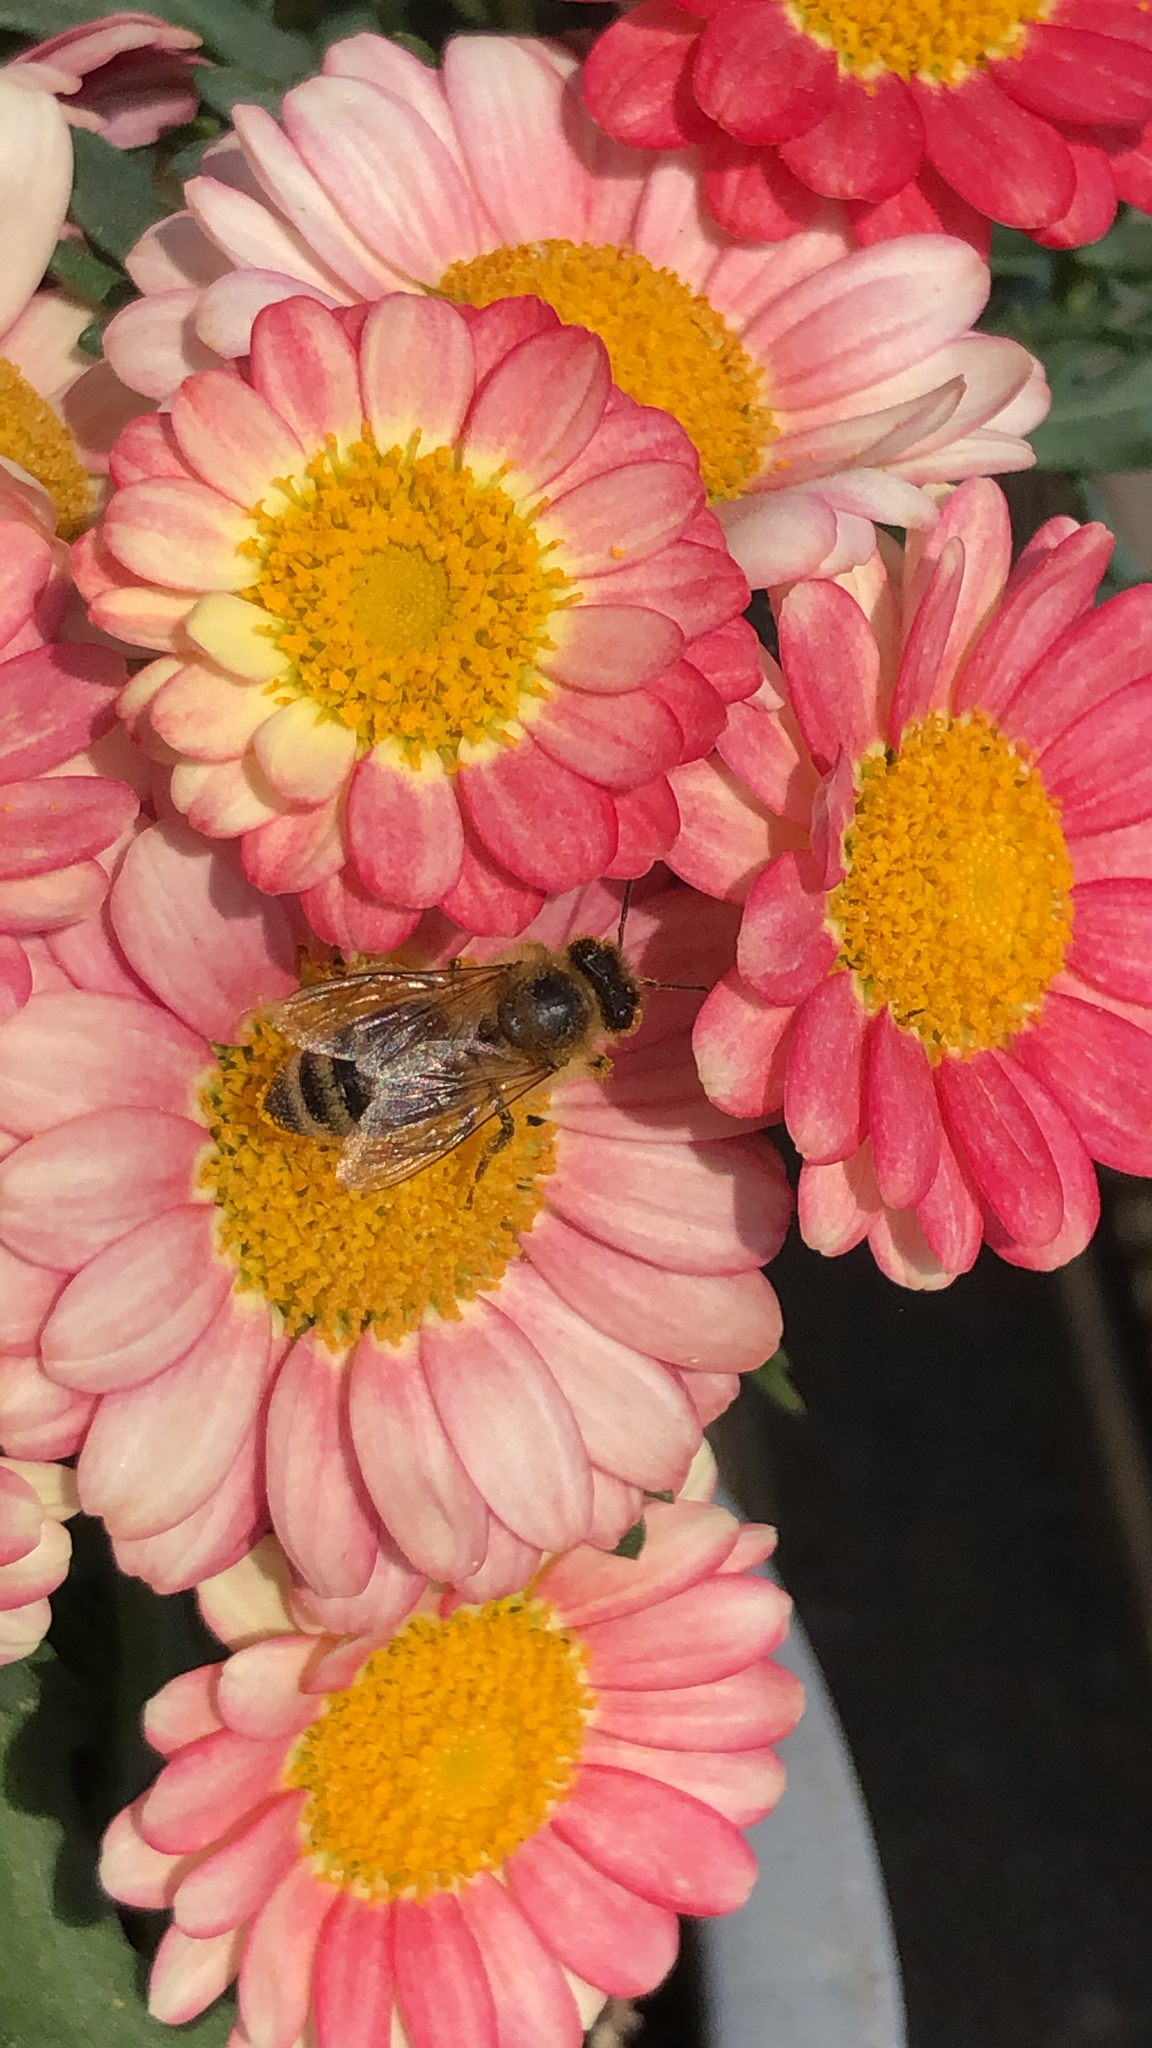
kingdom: Animalia
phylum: Arthropoda
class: Insecta
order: Hymenoptera
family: Apidae
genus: Apis
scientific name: Apis mellifera
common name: Honey bee
